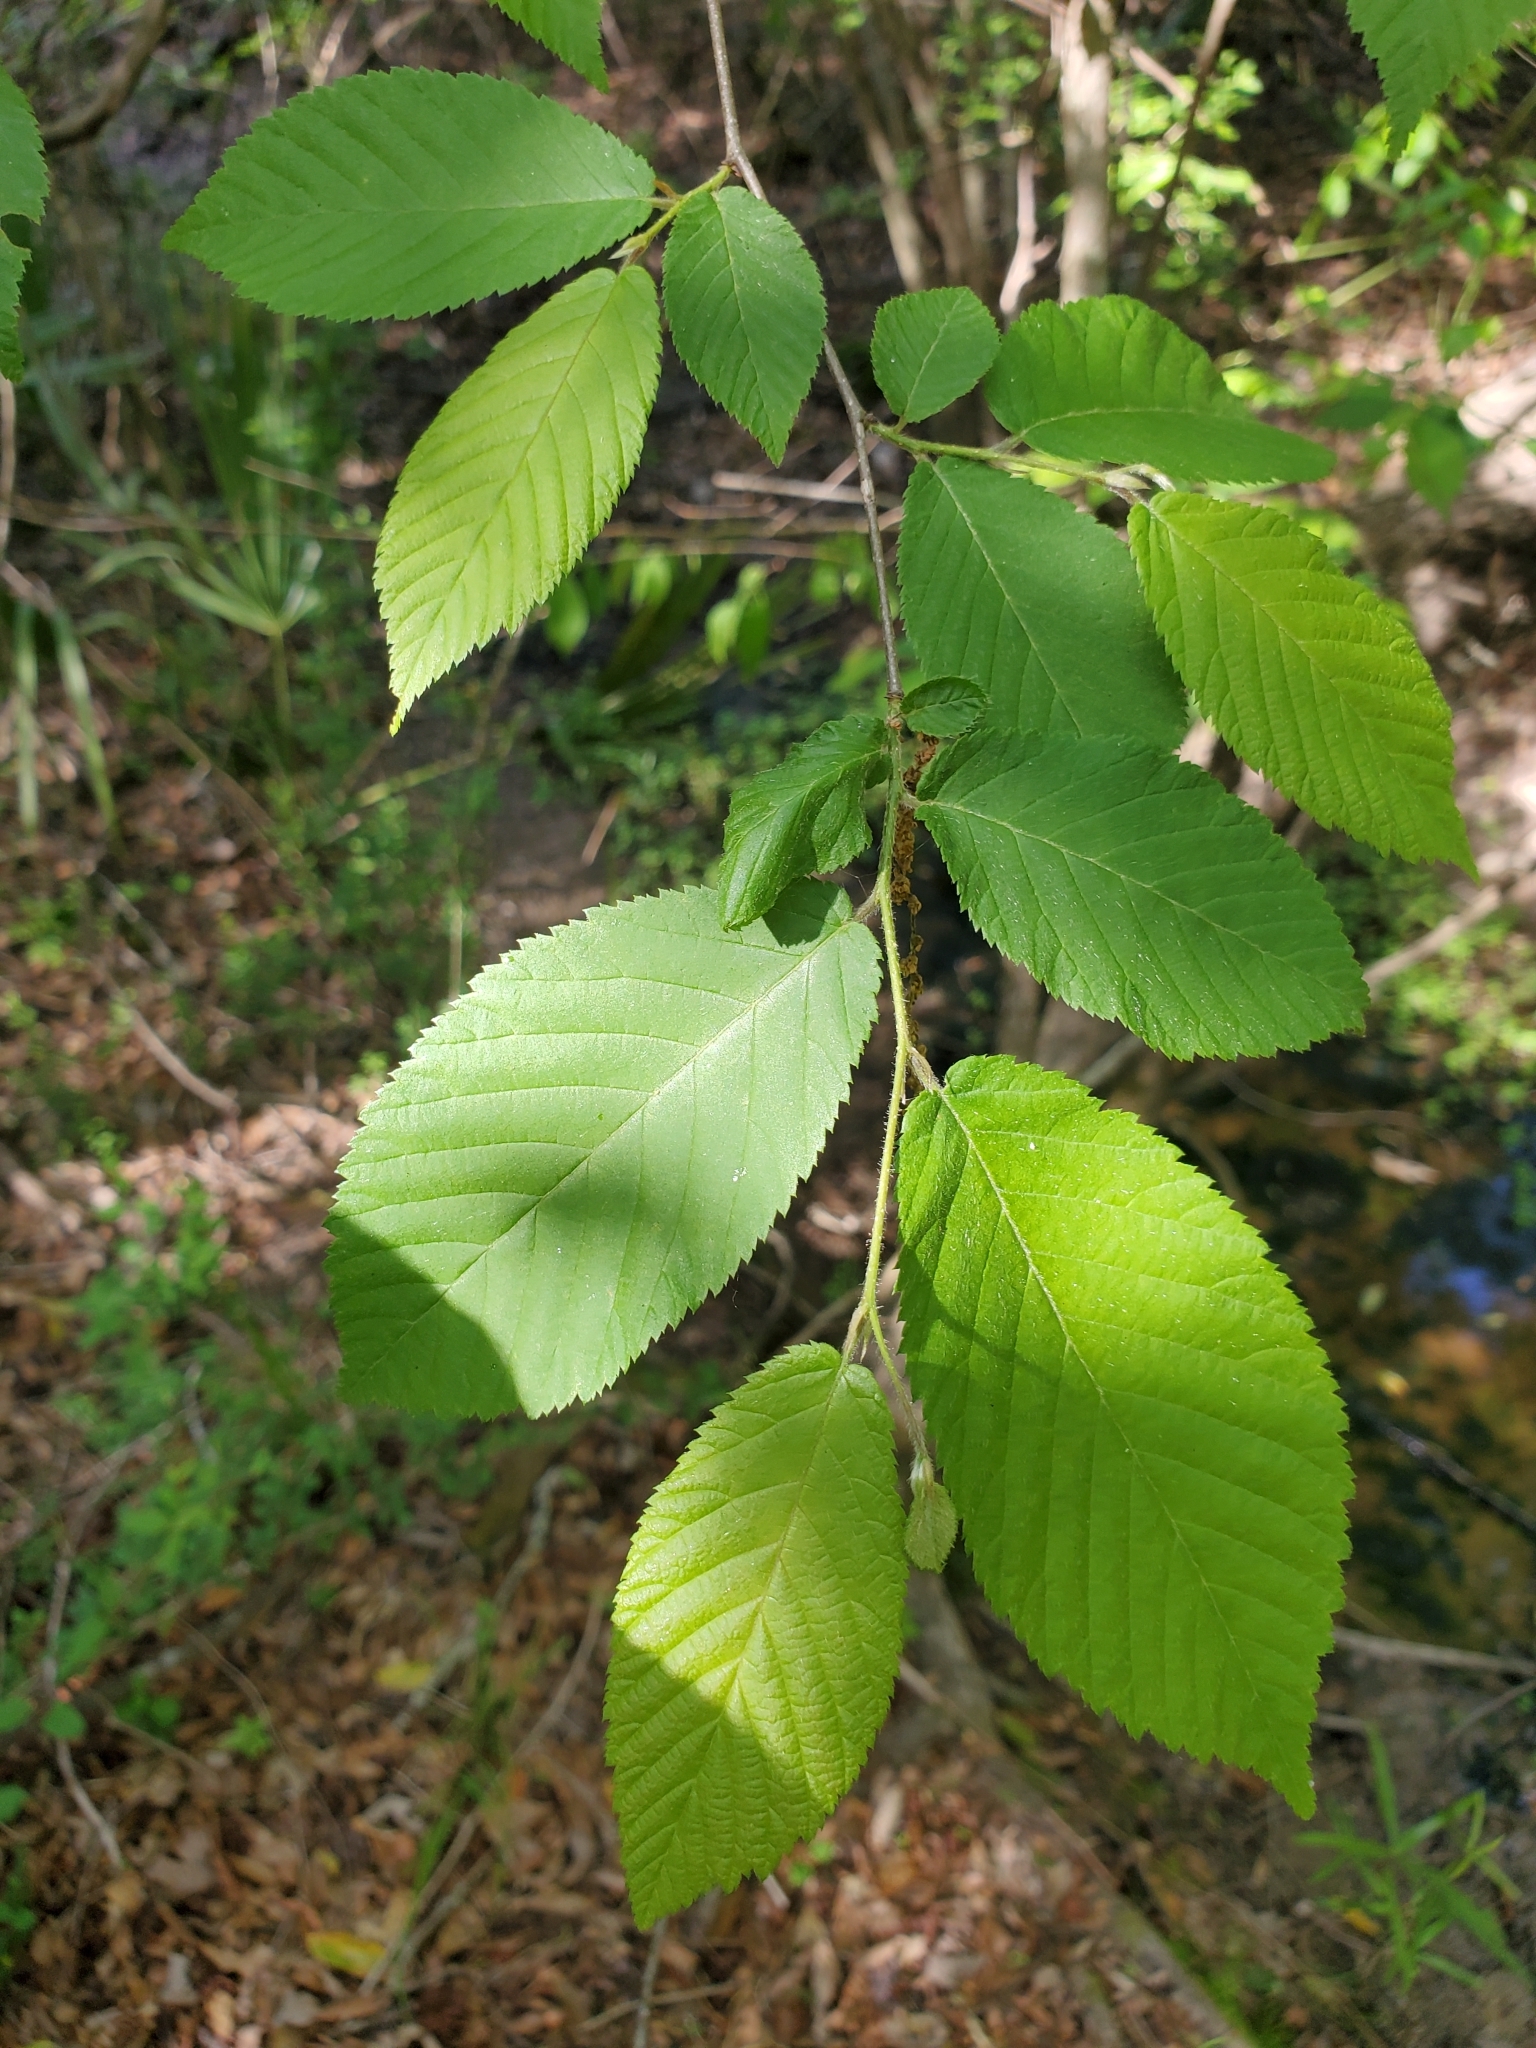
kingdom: Plantae
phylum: Tracheophyta
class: Magnoliopsida
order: Fagales
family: Betulaceae
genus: Ostrya
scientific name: Ostrya virginiana
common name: Ironwood
